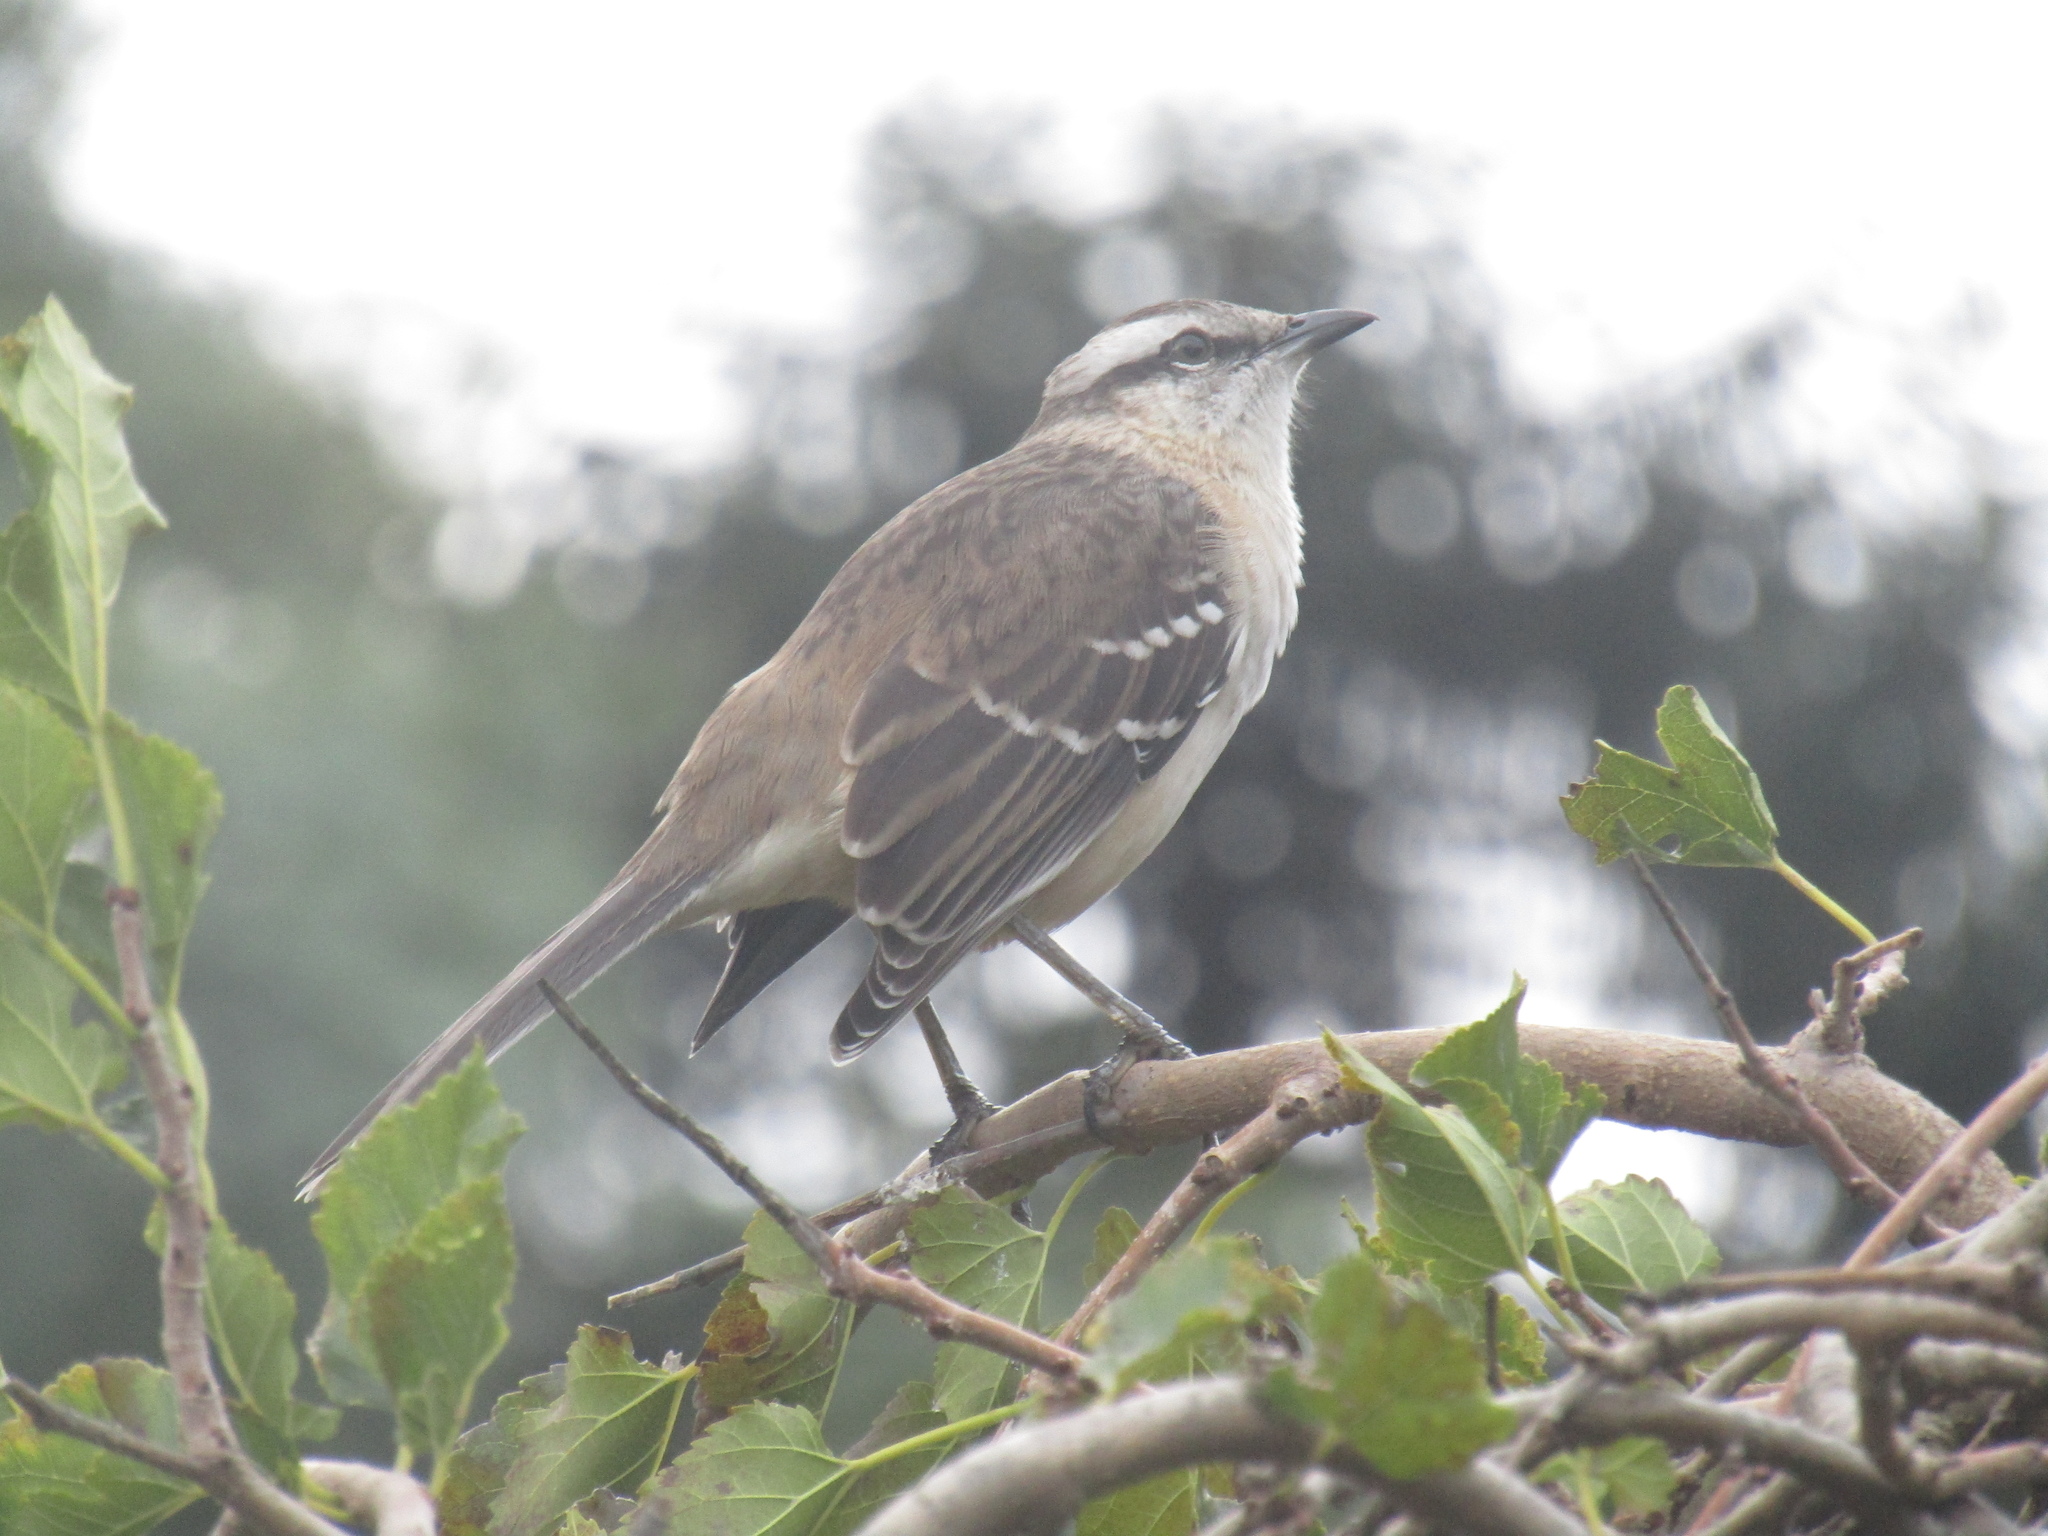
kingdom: Animalia
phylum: Chordata
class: Aves
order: Passeriformes
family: Mimidae
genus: Mimus
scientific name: Mimus saturninus
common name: Chalk-browed mockingbird
